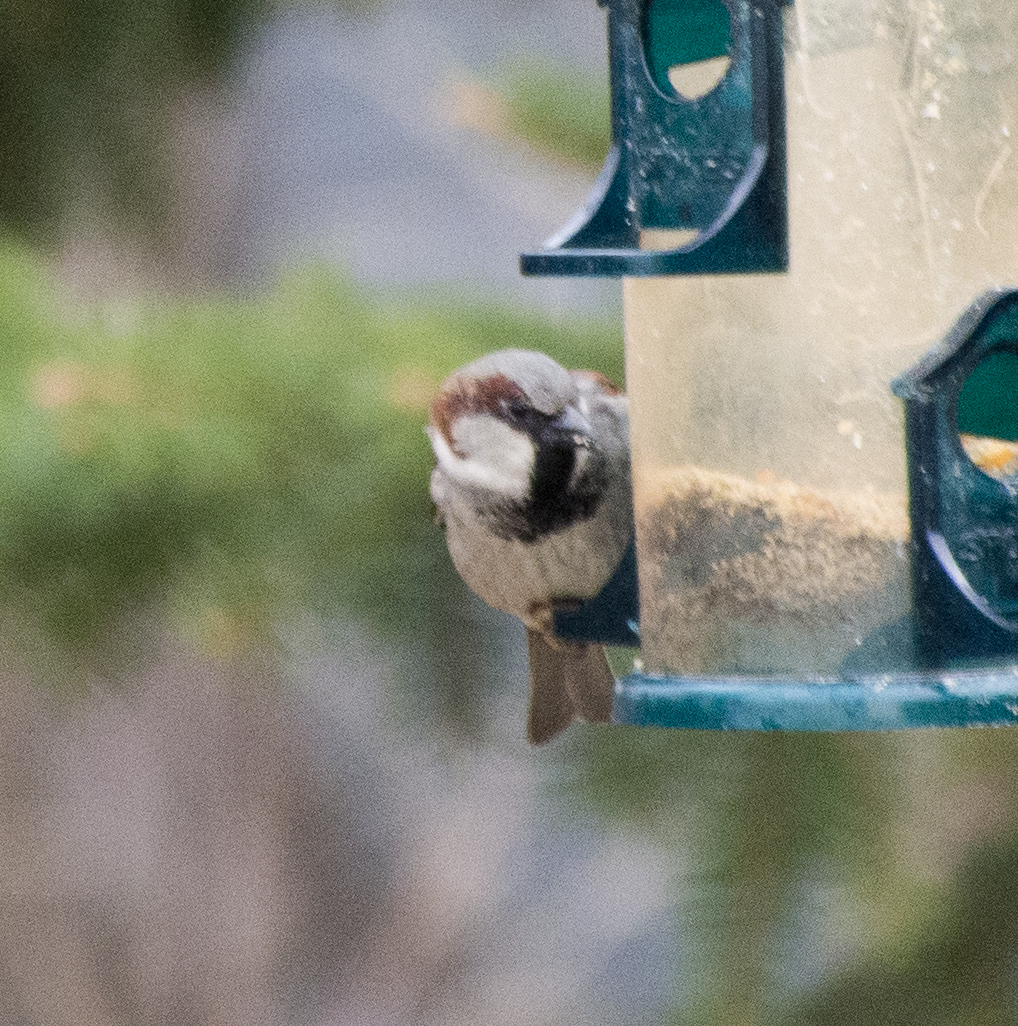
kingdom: Animalia
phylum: Chordata
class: Aves
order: Passeriformes
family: Passeridae
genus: Passer
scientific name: Passer domesticus
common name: House sparrow
